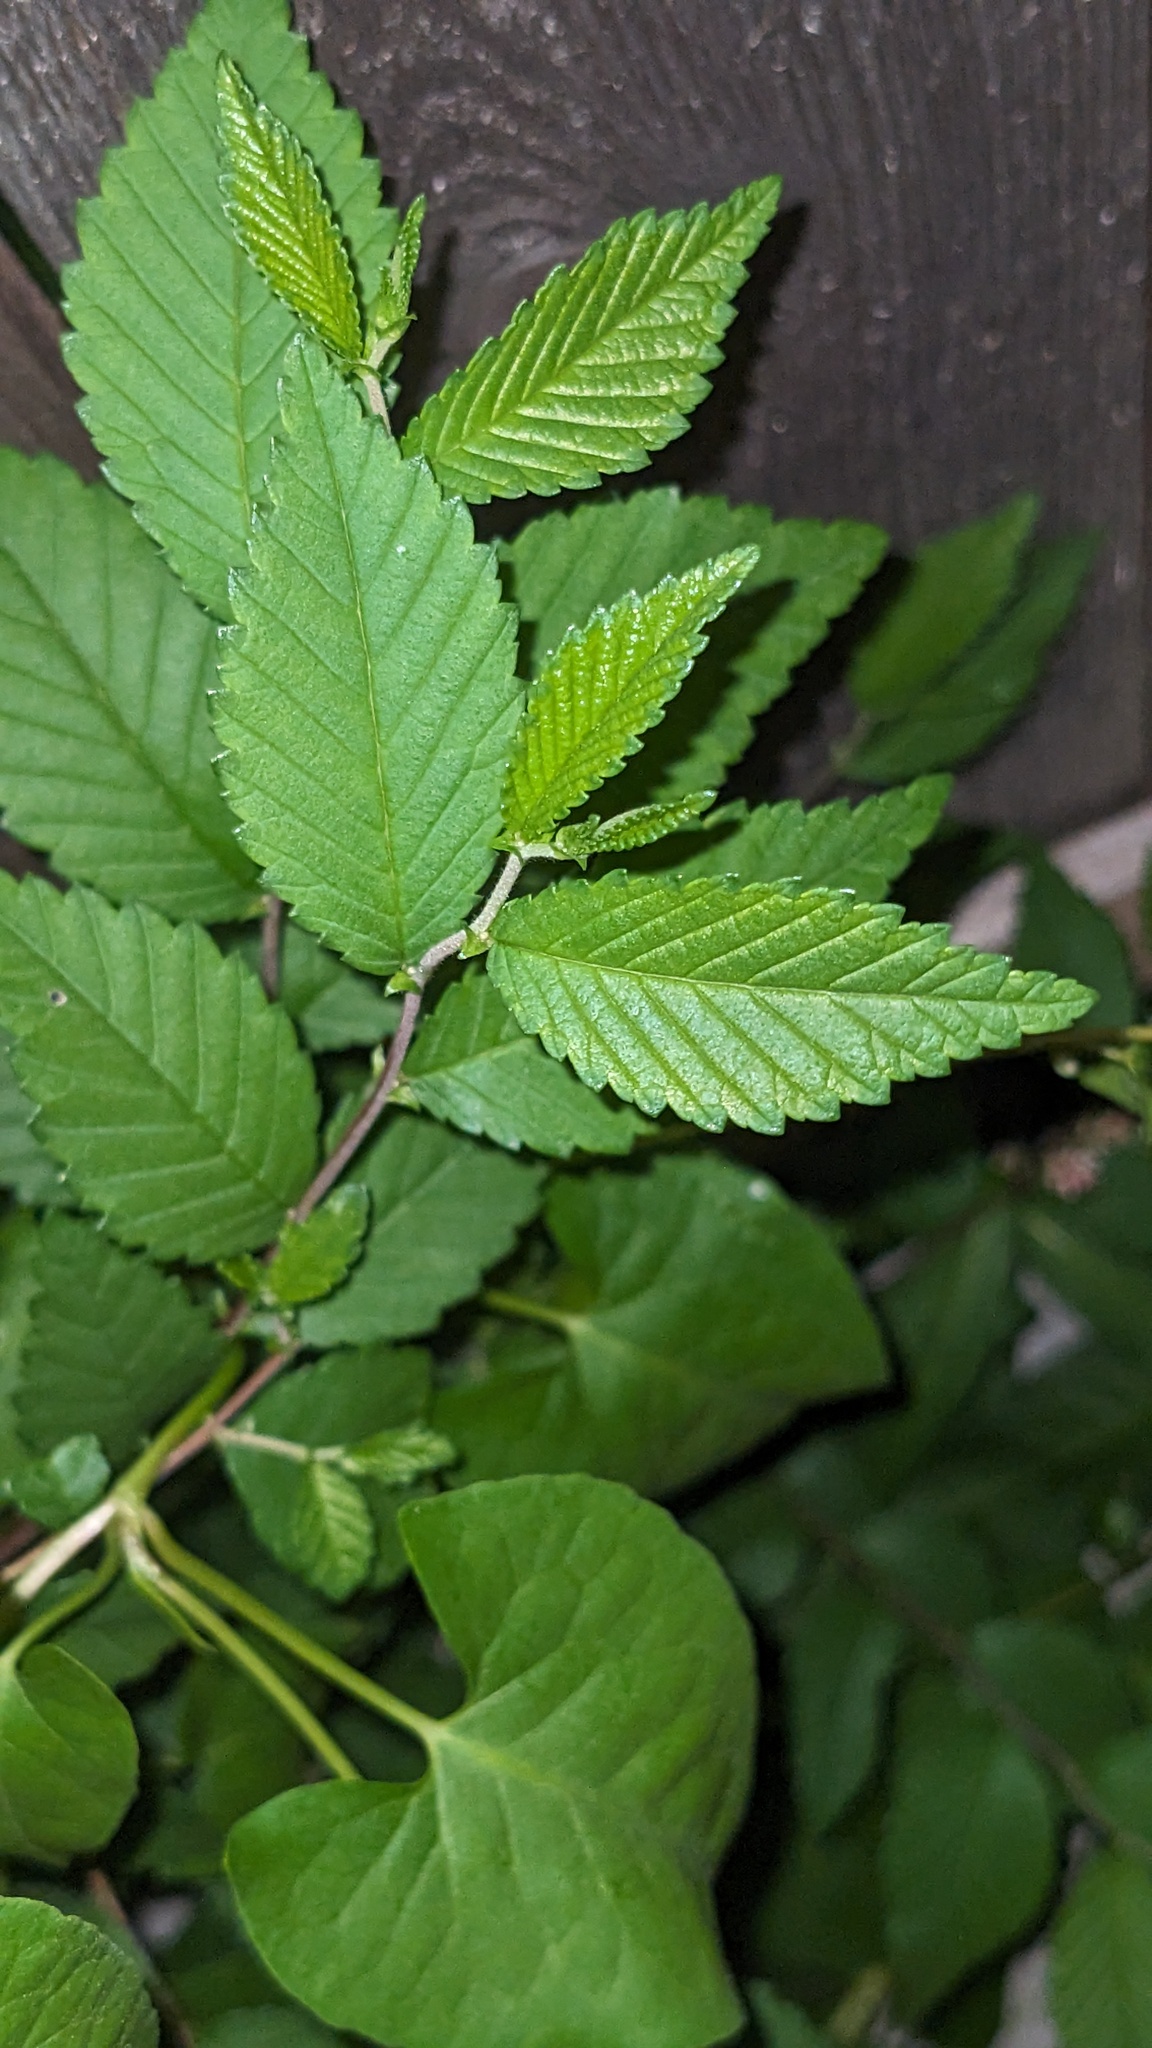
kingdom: Plantae
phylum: Tracheophyta
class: Magnoliopsida
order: Rosales
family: Ulmaceae
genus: Ulmus
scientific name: Ulmus pumila
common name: Siberian elm
